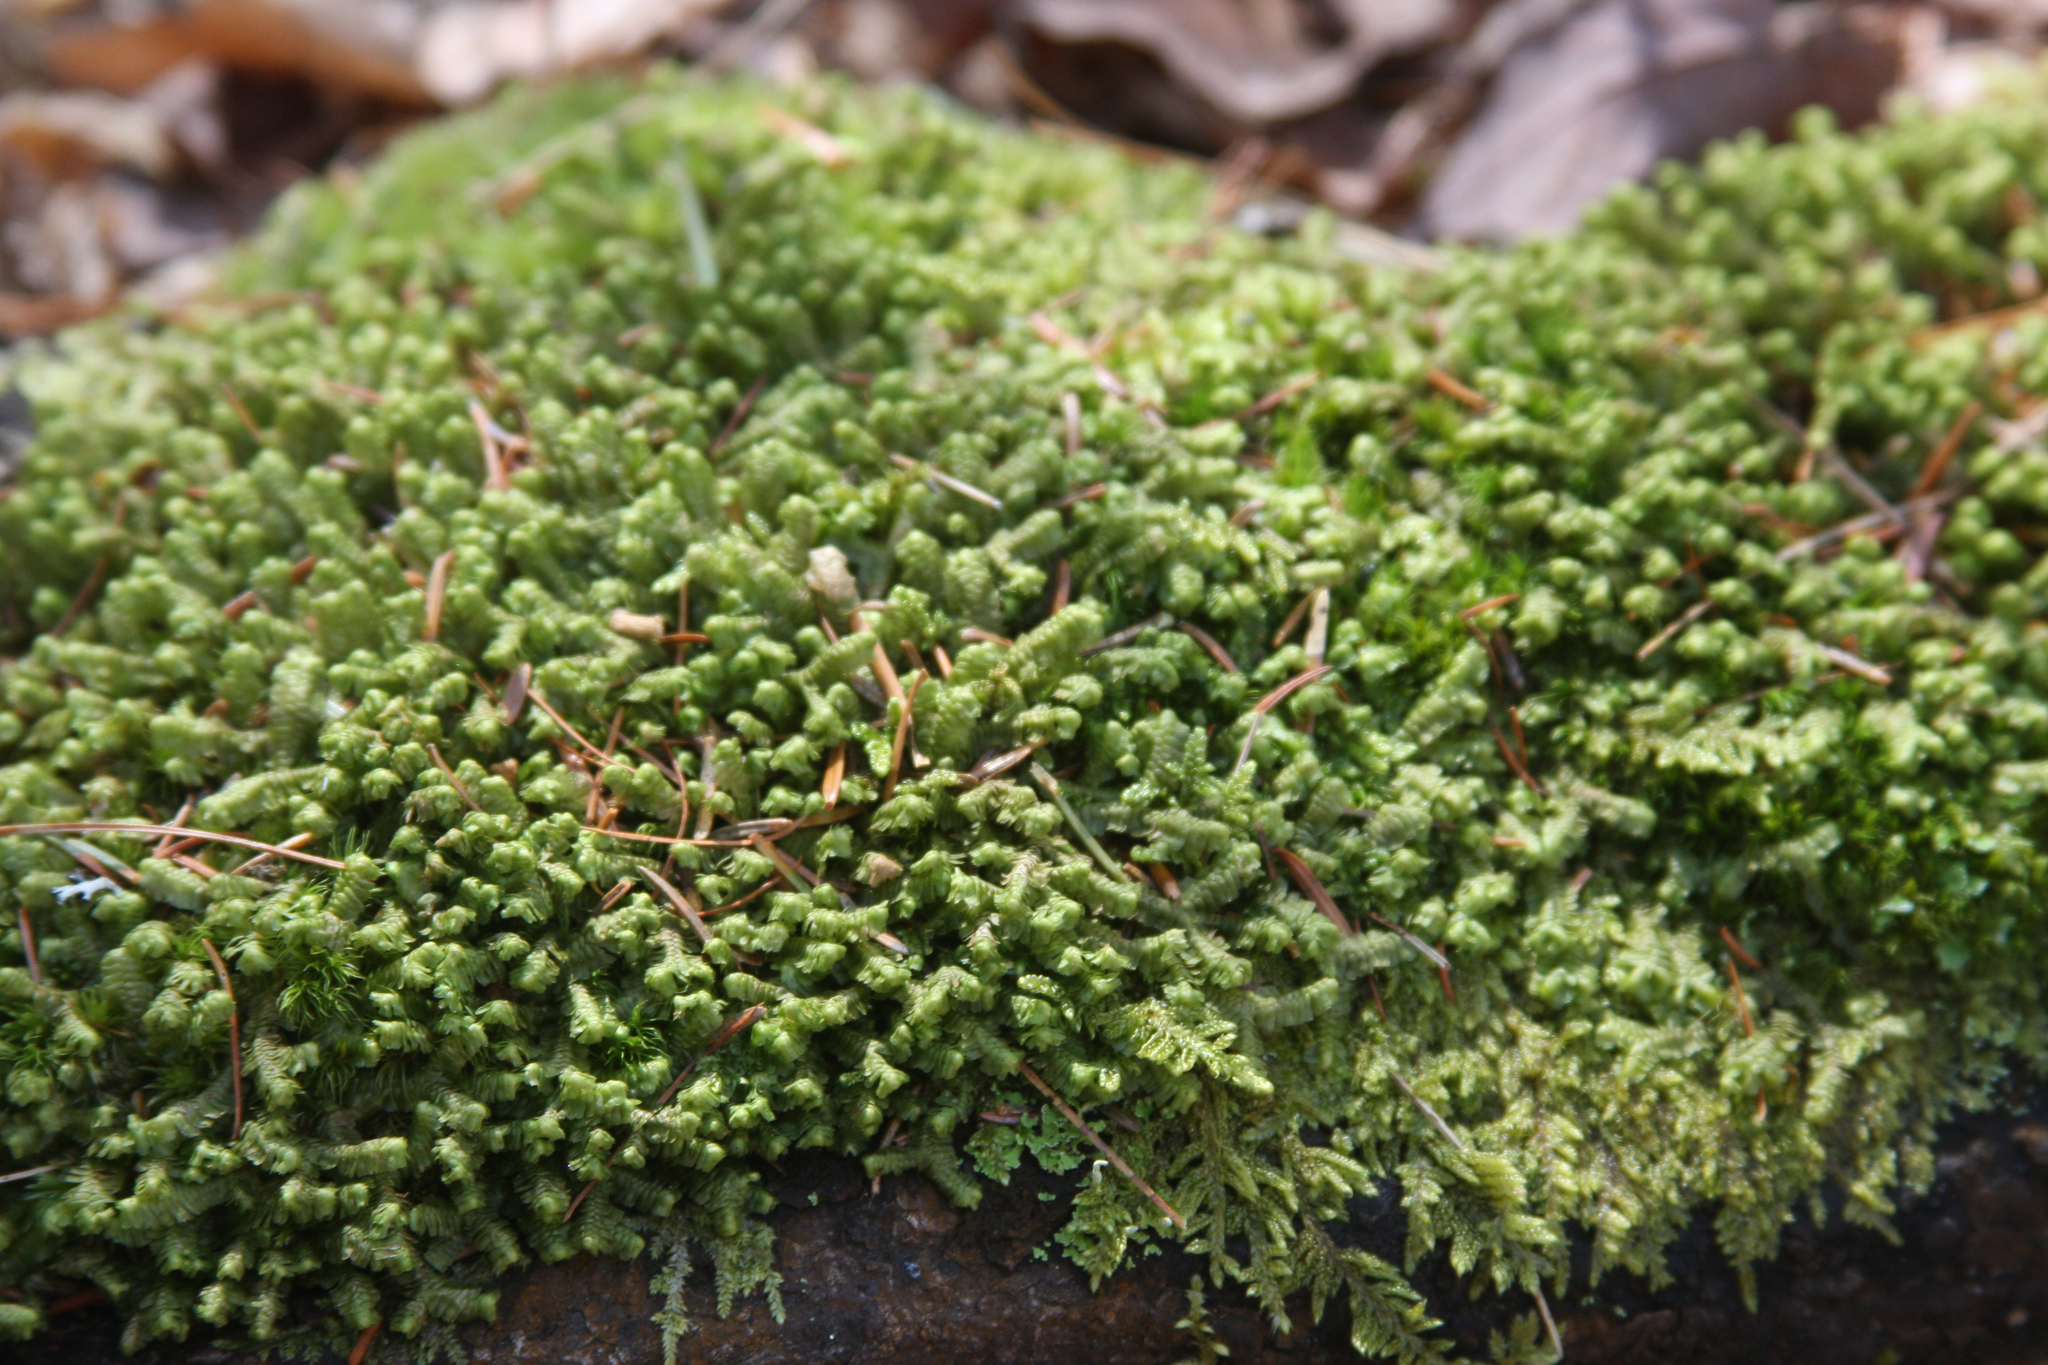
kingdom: Plantae
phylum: Marchantiophyta
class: Jungermanniopsida
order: Jungermanniales
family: Lepidoziaceae
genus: Bazzania
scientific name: Bazzania trilobata
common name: Three-lobed whipwort
